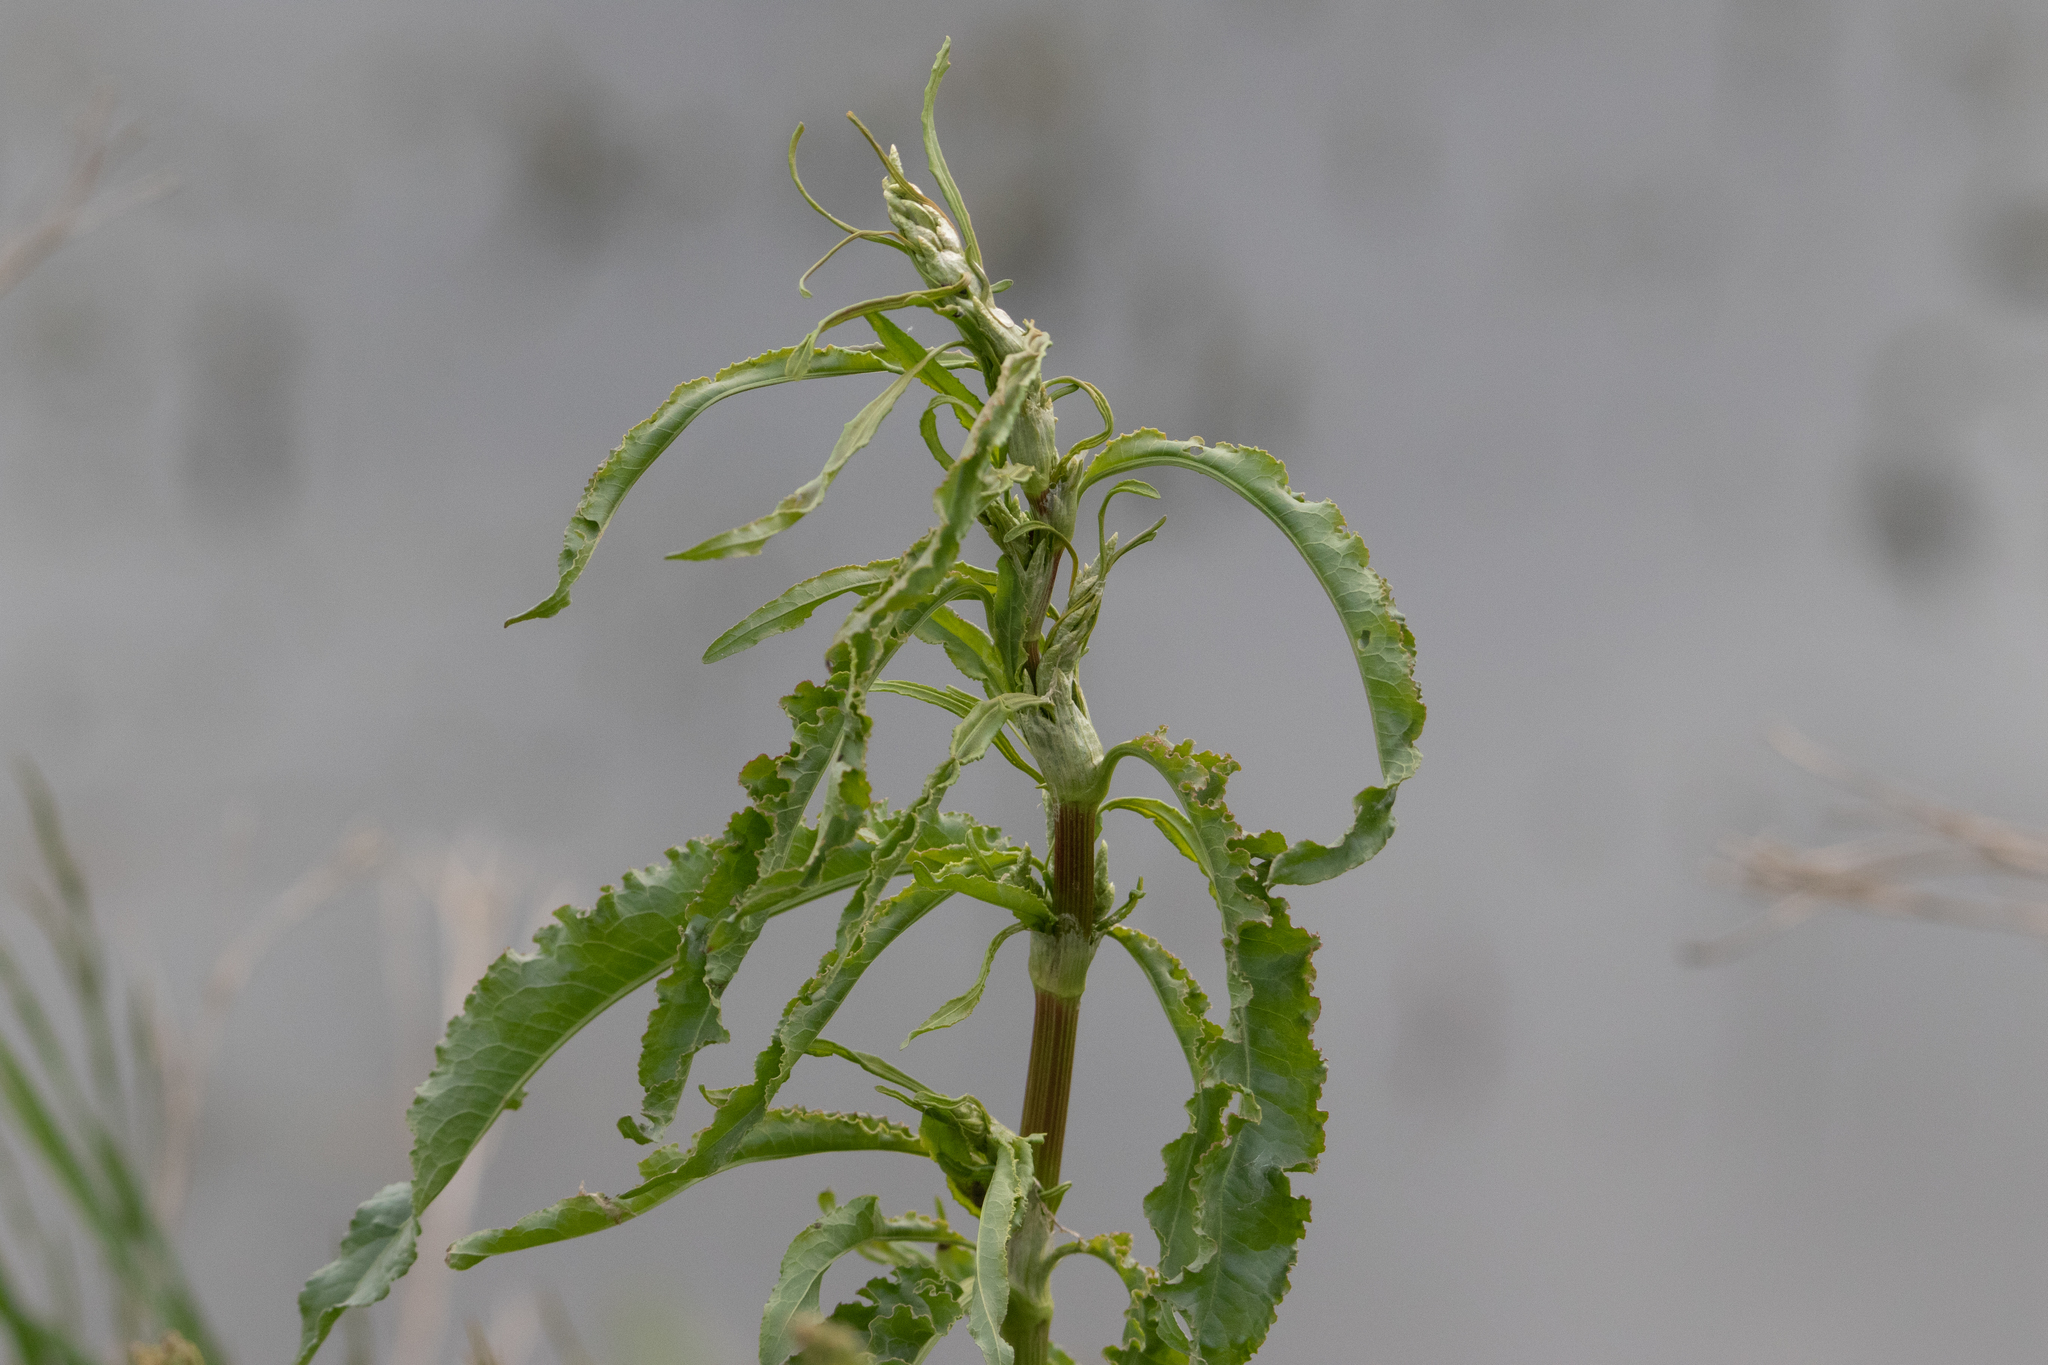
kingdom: Plantae
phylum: Tracheophyta
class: Magnoliopsida
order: Caryophyllales
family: Polygonaceae
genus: Rumex
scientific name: Rumex pseudonatronatus
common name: Field dock
